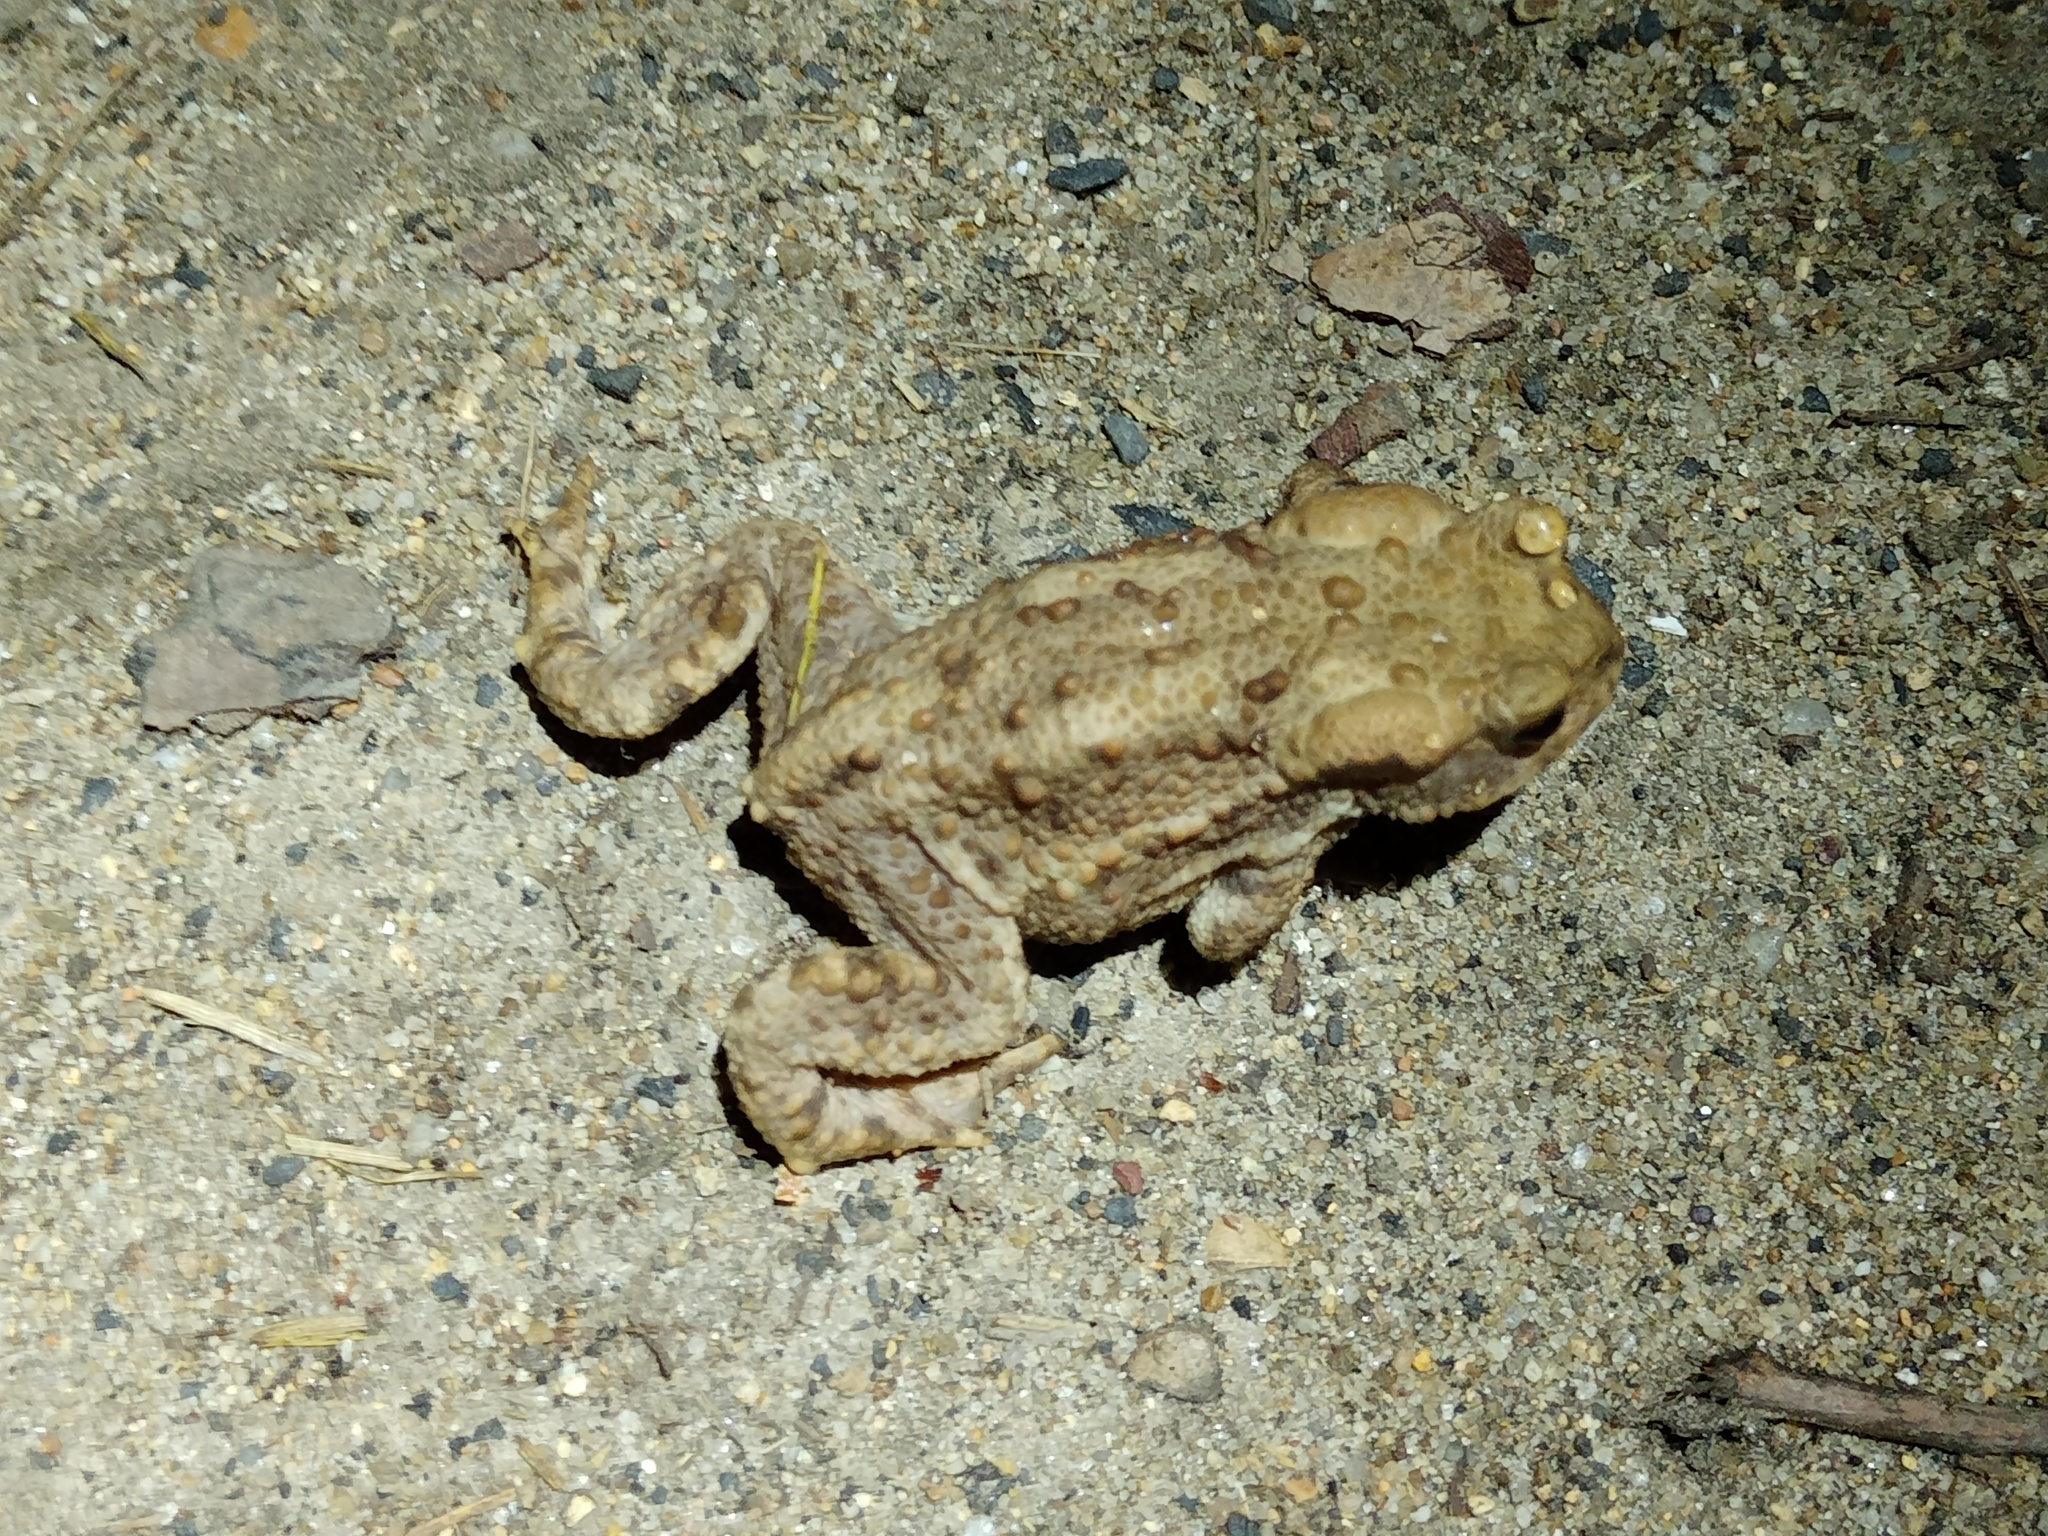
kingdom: Animalia
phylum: Chordata
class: Amphibia
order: Anura
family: Bufonidae
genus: Bufo
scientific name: Bufo bufo
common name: Common toad
